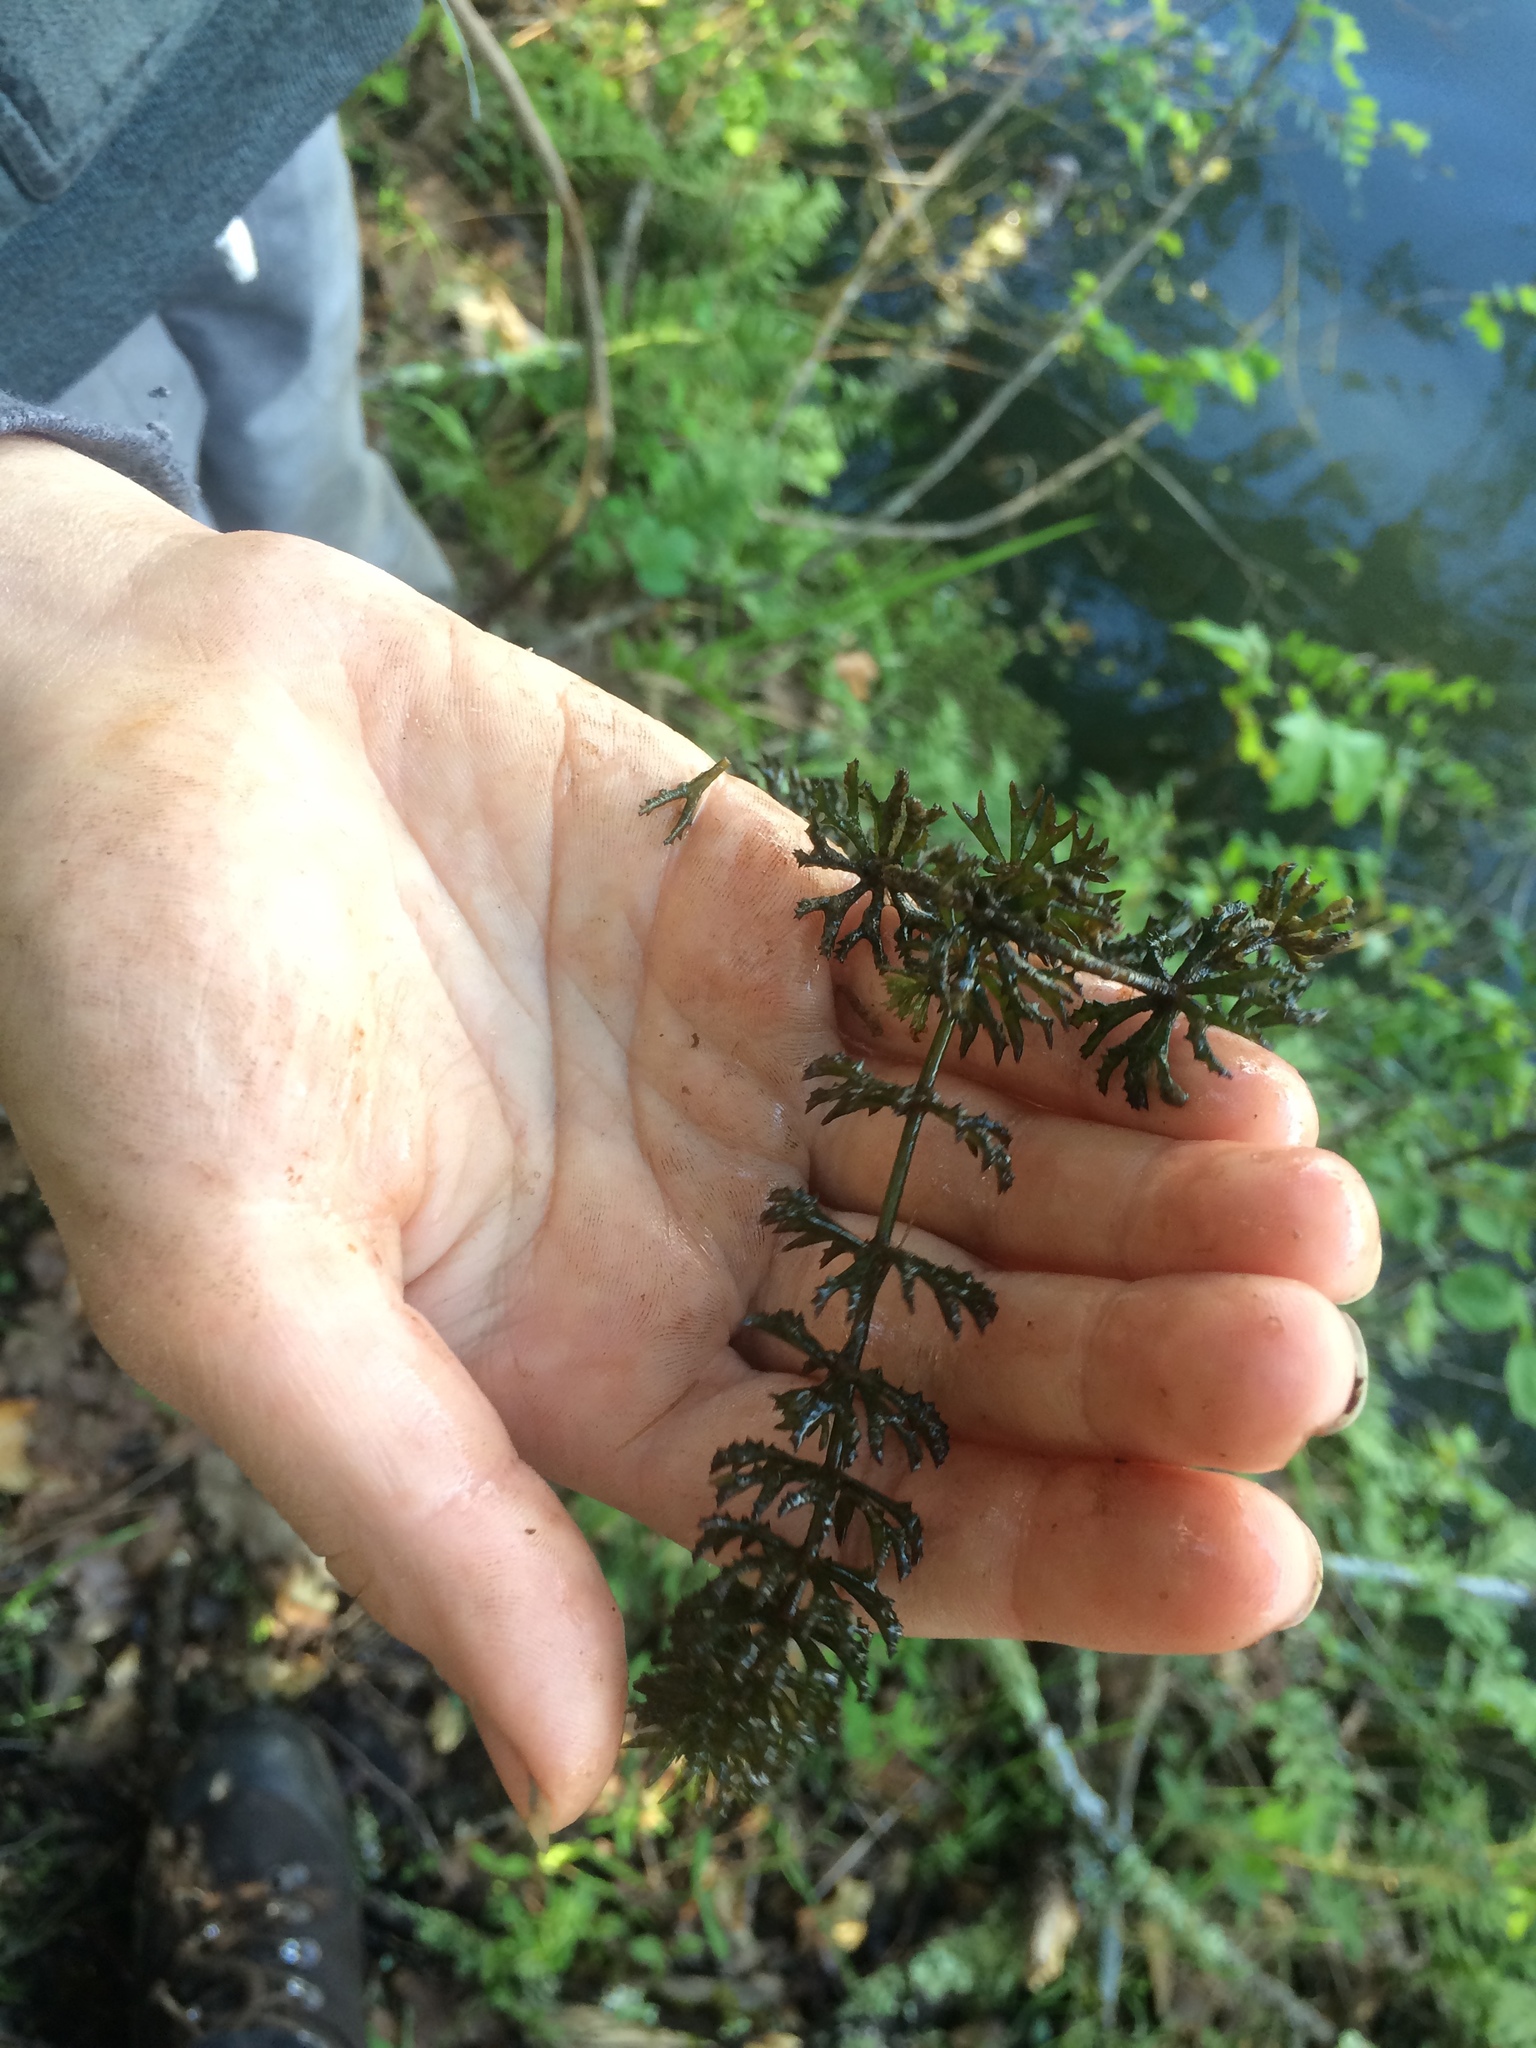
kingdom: Plantae
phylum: Tracheophyta
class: Magnoliopsida
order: Ceratophyllales
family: Ceratophyllaceae
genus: Ceratophyllum
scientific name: Ceratophyllum demersum
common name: Rigid hornwort
